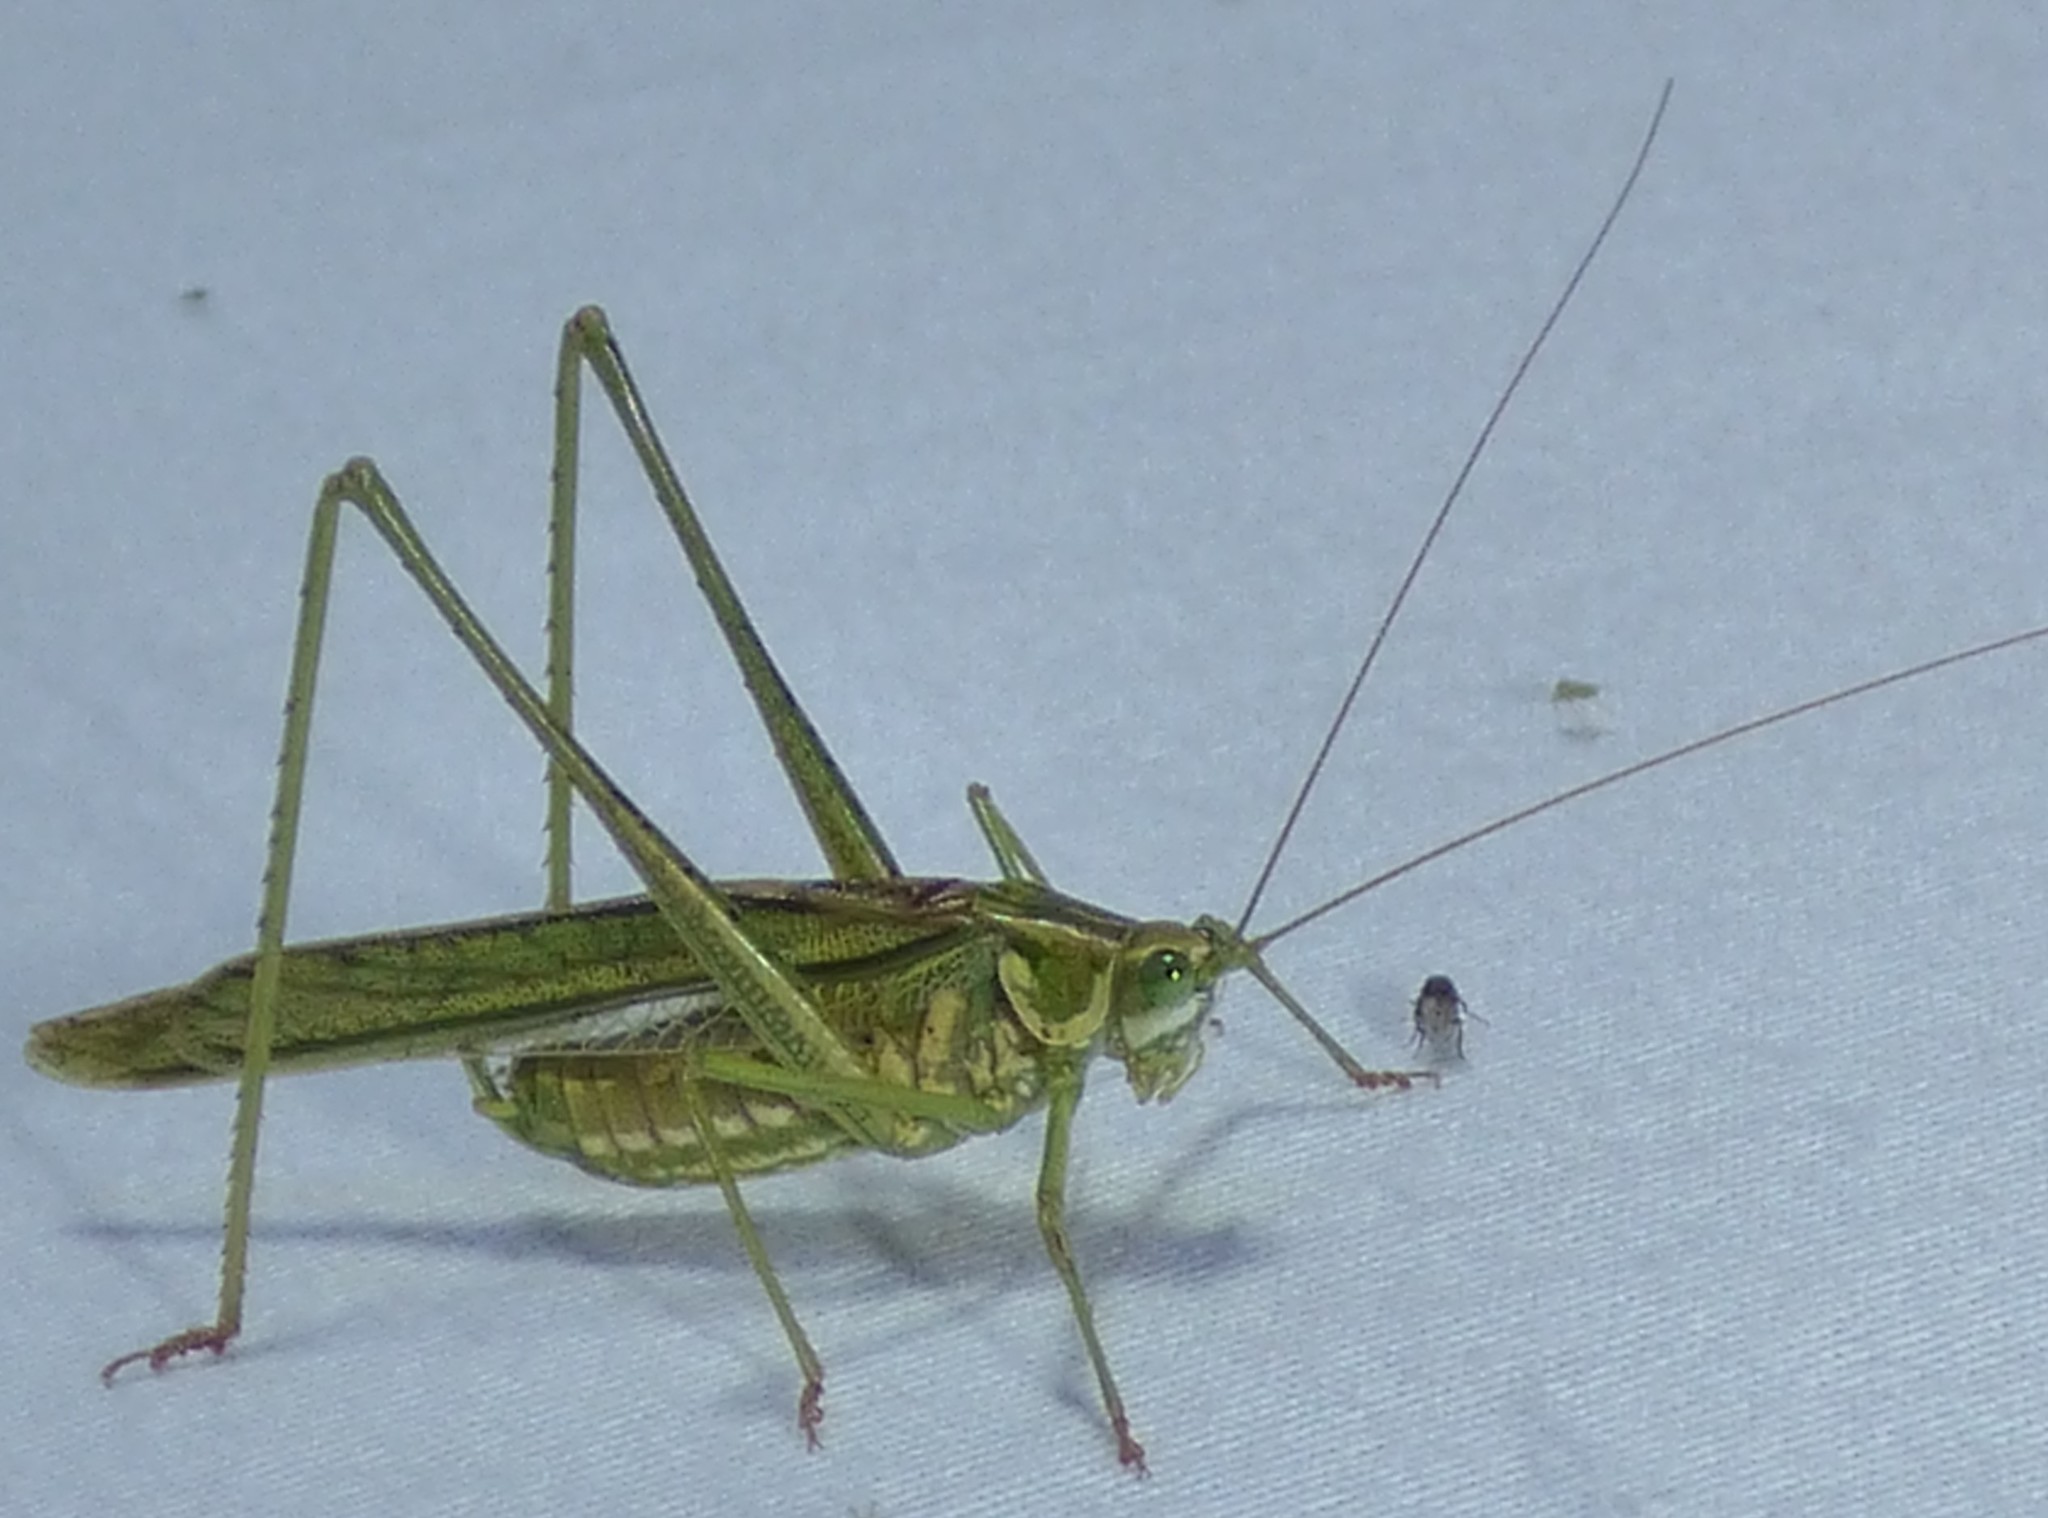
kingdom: Animalia
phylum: Arthropoda
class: Insecta
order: Orthoptera
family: Tettigoniidae
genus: Inscudderia
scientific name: Inscudderia walkeri
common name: Eastern cypress katydid
